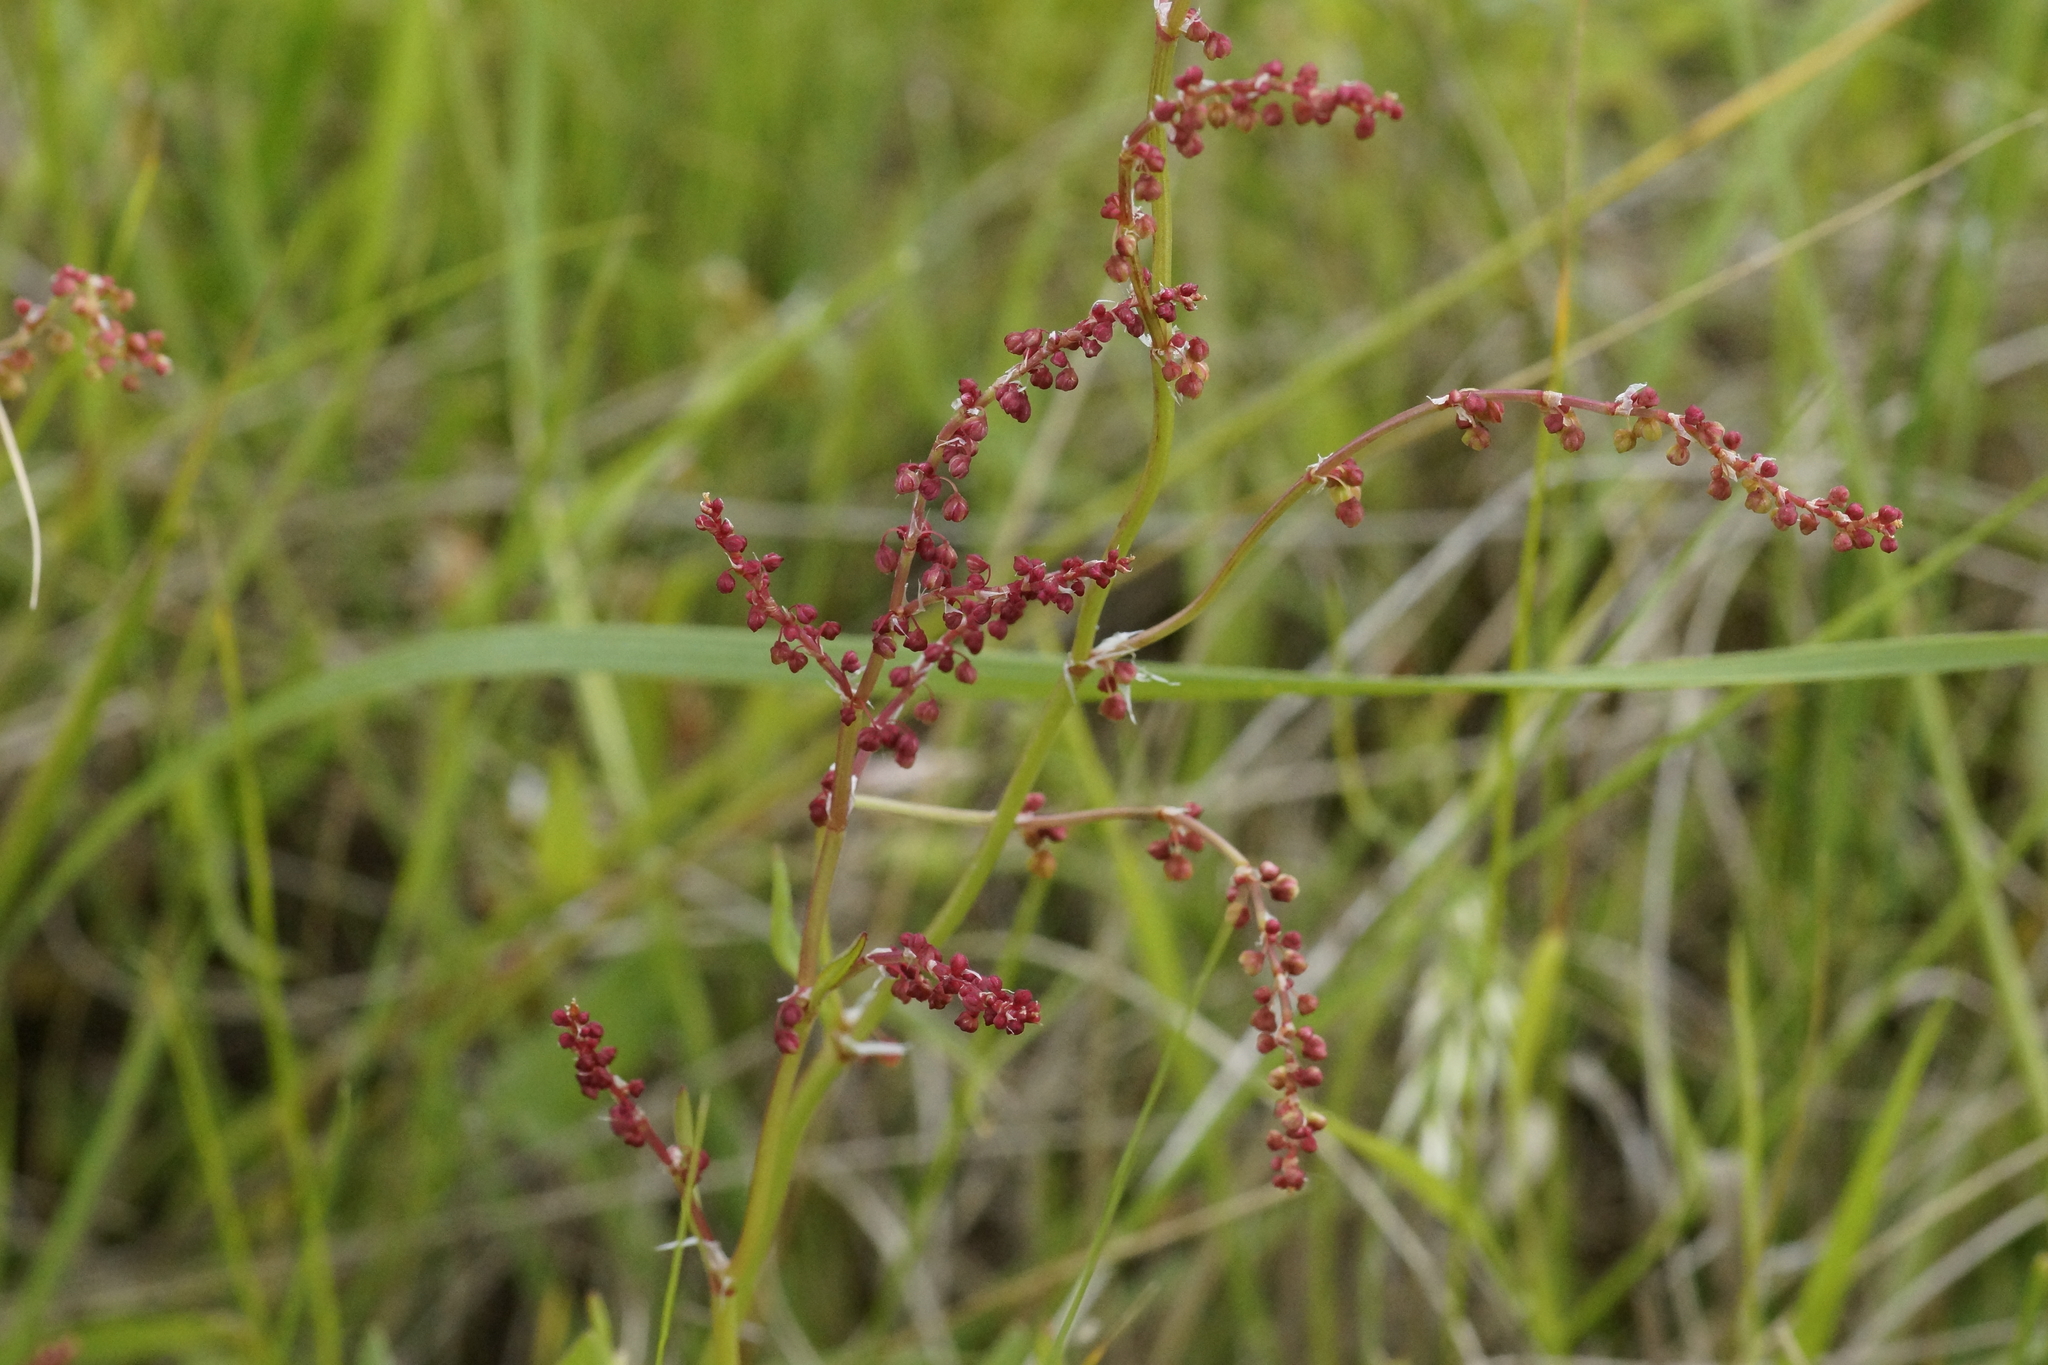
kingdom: Plantae
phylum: Tracheophyta
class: Magnoliopsida
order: Saxifragales
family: Haloragaceae
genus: Gonocarpus
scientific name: Gonocarpus tetragynus
